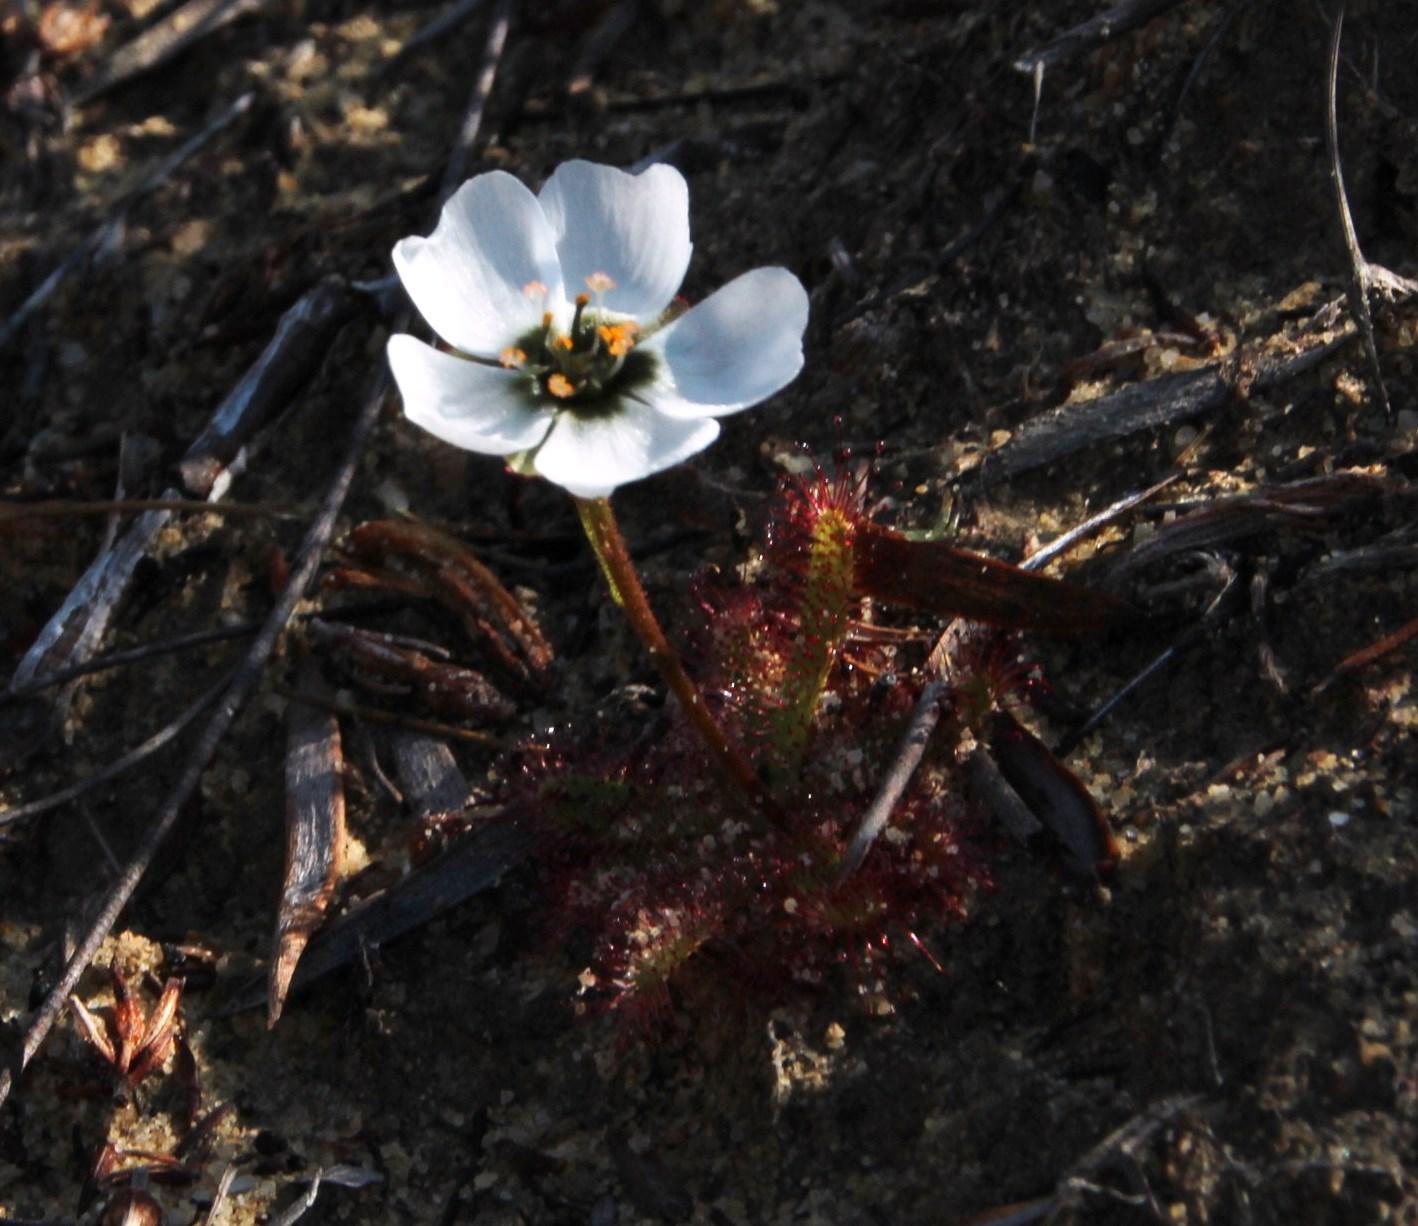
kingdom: Plantae
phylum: Tracheophyta
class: Magnoliopsida
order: Caryophyllales
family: Droseraceae
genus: Drosera
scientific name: Drosera cistiflora
